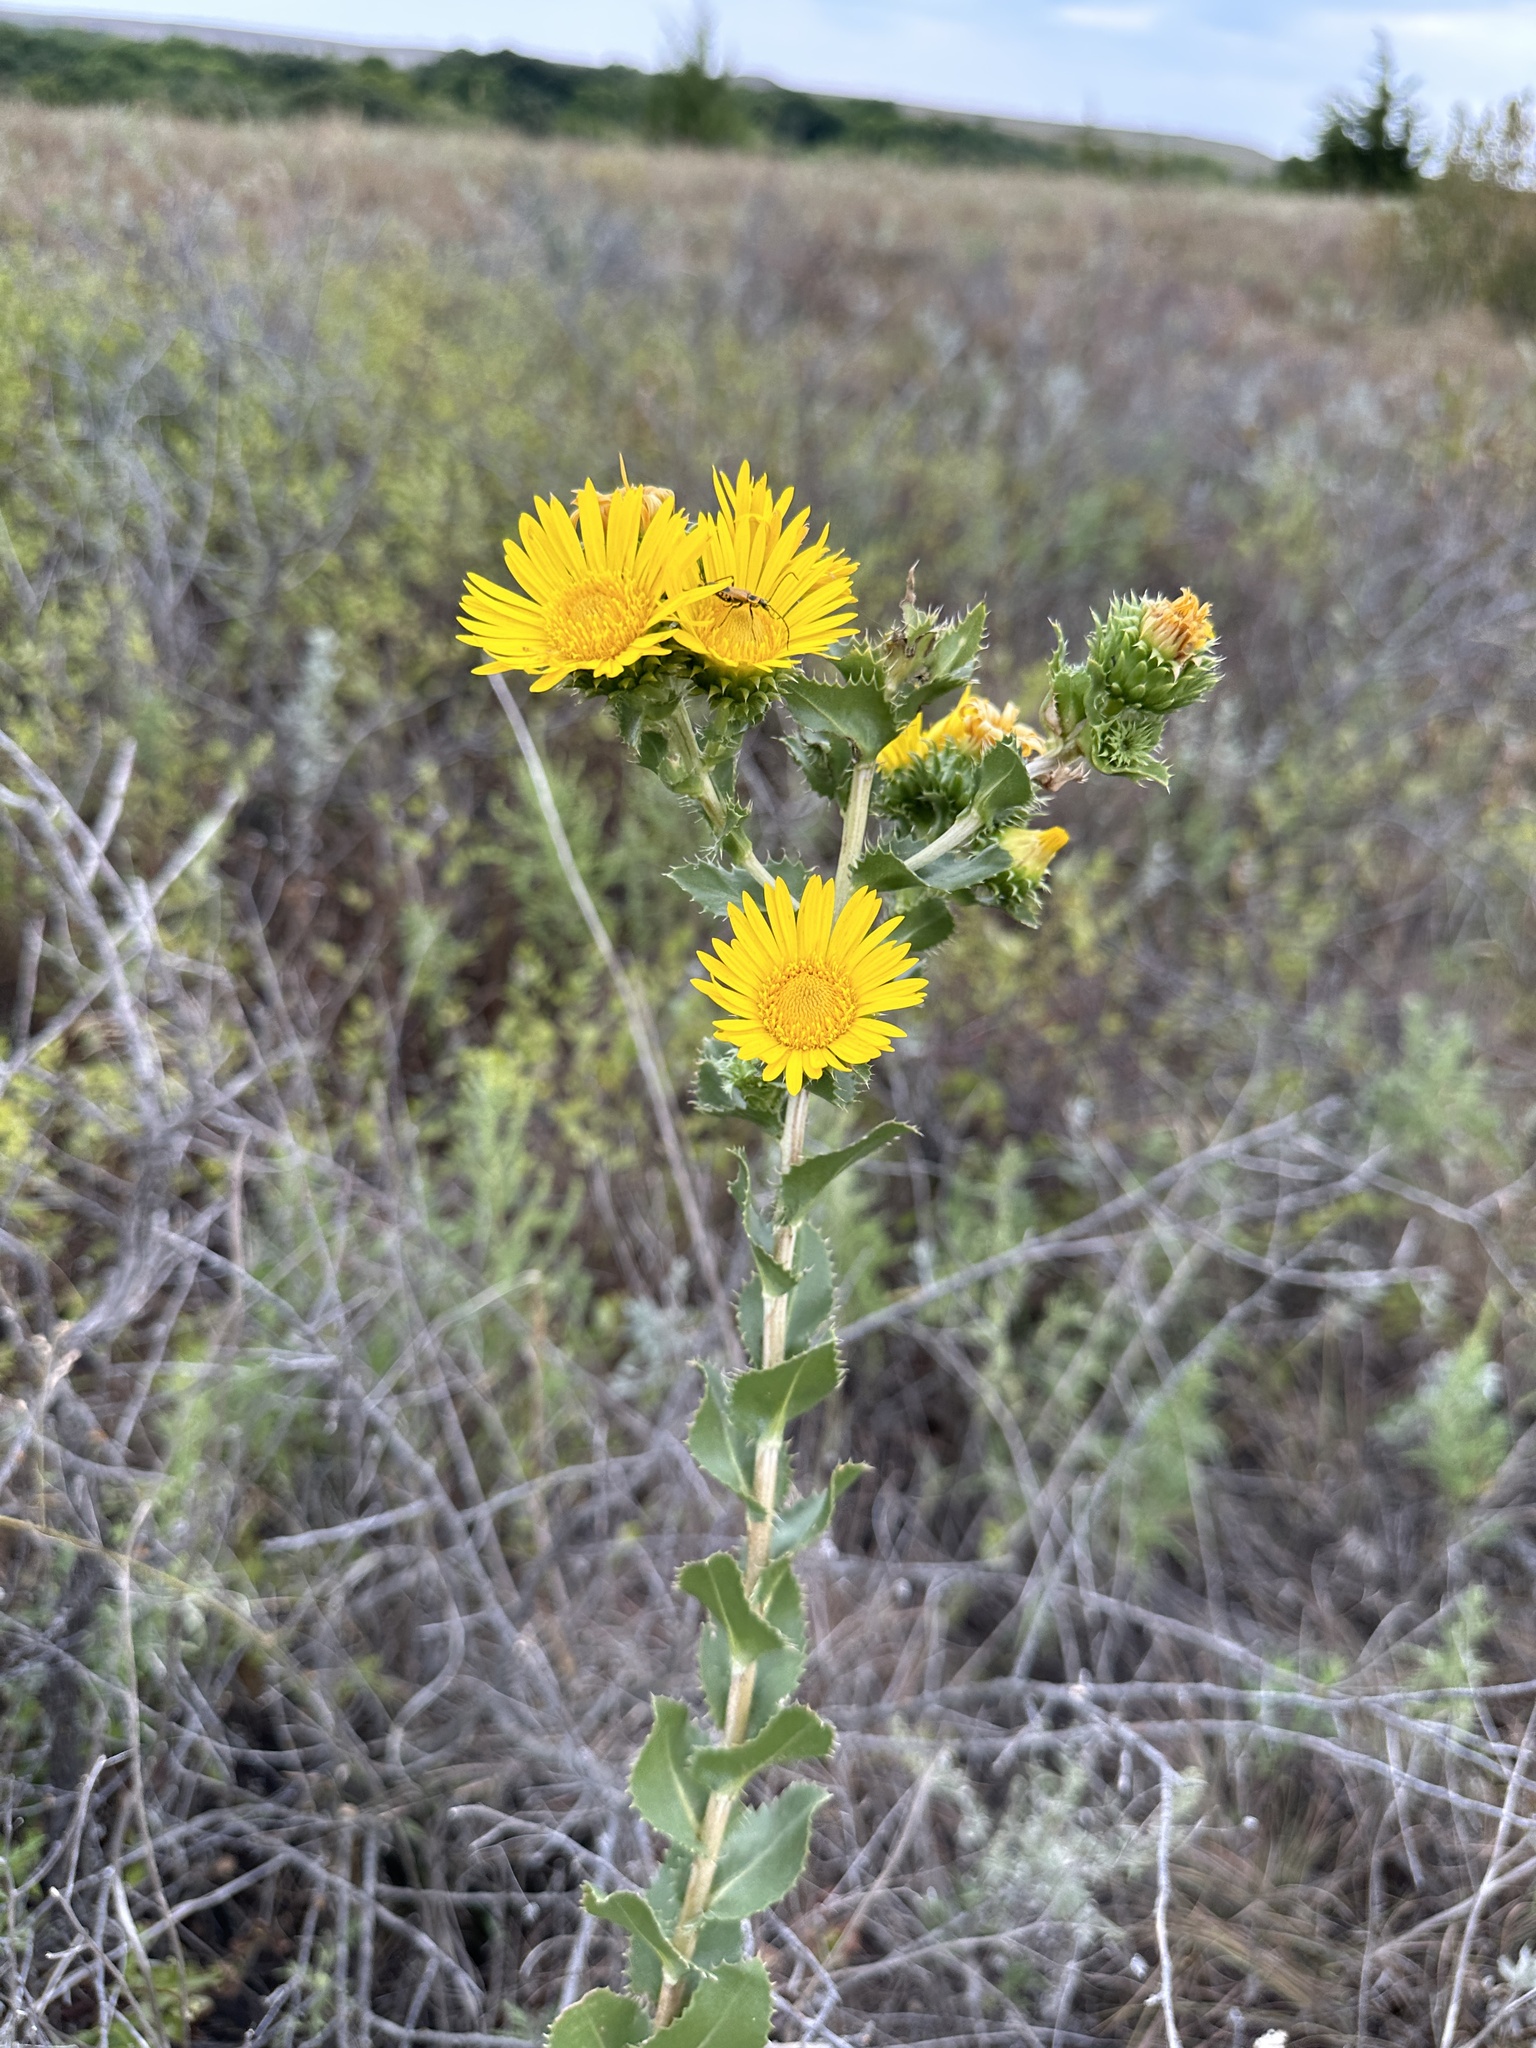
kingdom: Plantae
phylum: Tracheophyta
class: Magnoliopsida
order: Asterales
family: Asteraceae
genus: Grindelia
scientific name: Grindelia ciliata
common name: Goldenweed
